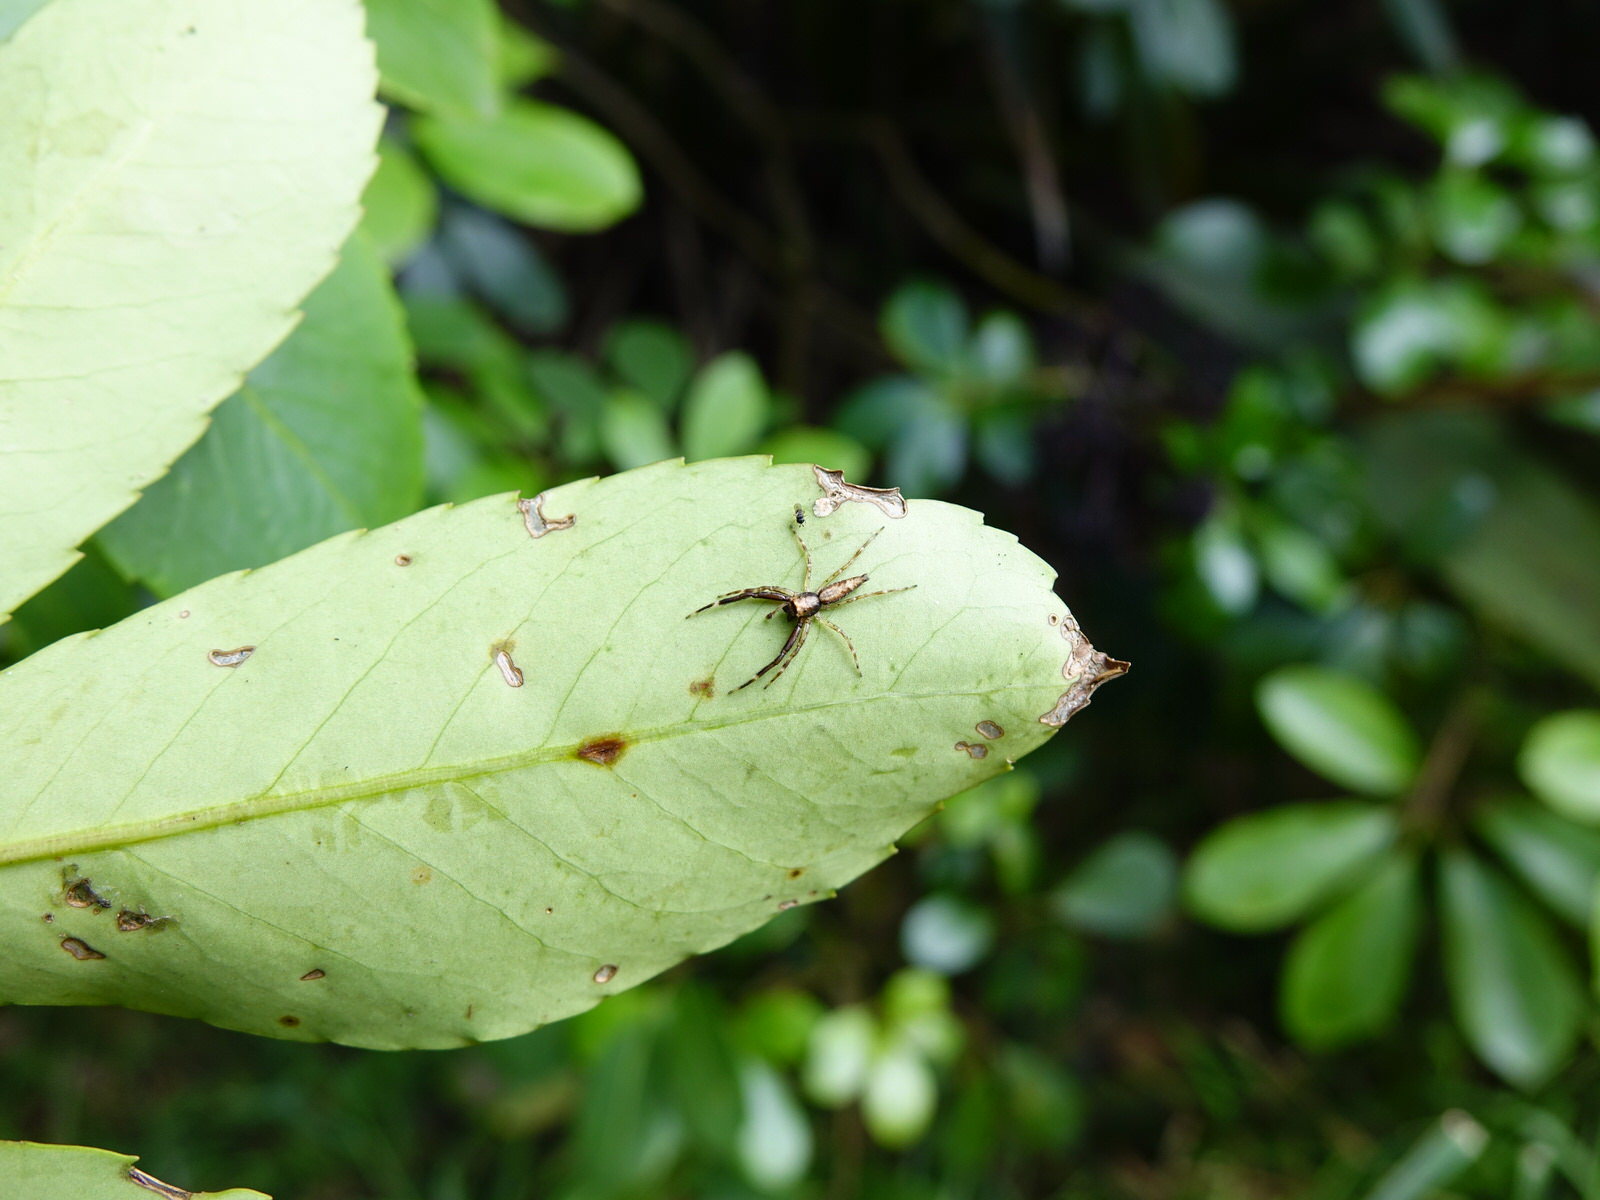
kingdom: Animalia
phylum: Arthropoda
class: Arachnida
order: Araneae
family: Salticidae
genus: Helpis
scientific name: Helpis minitabunda
